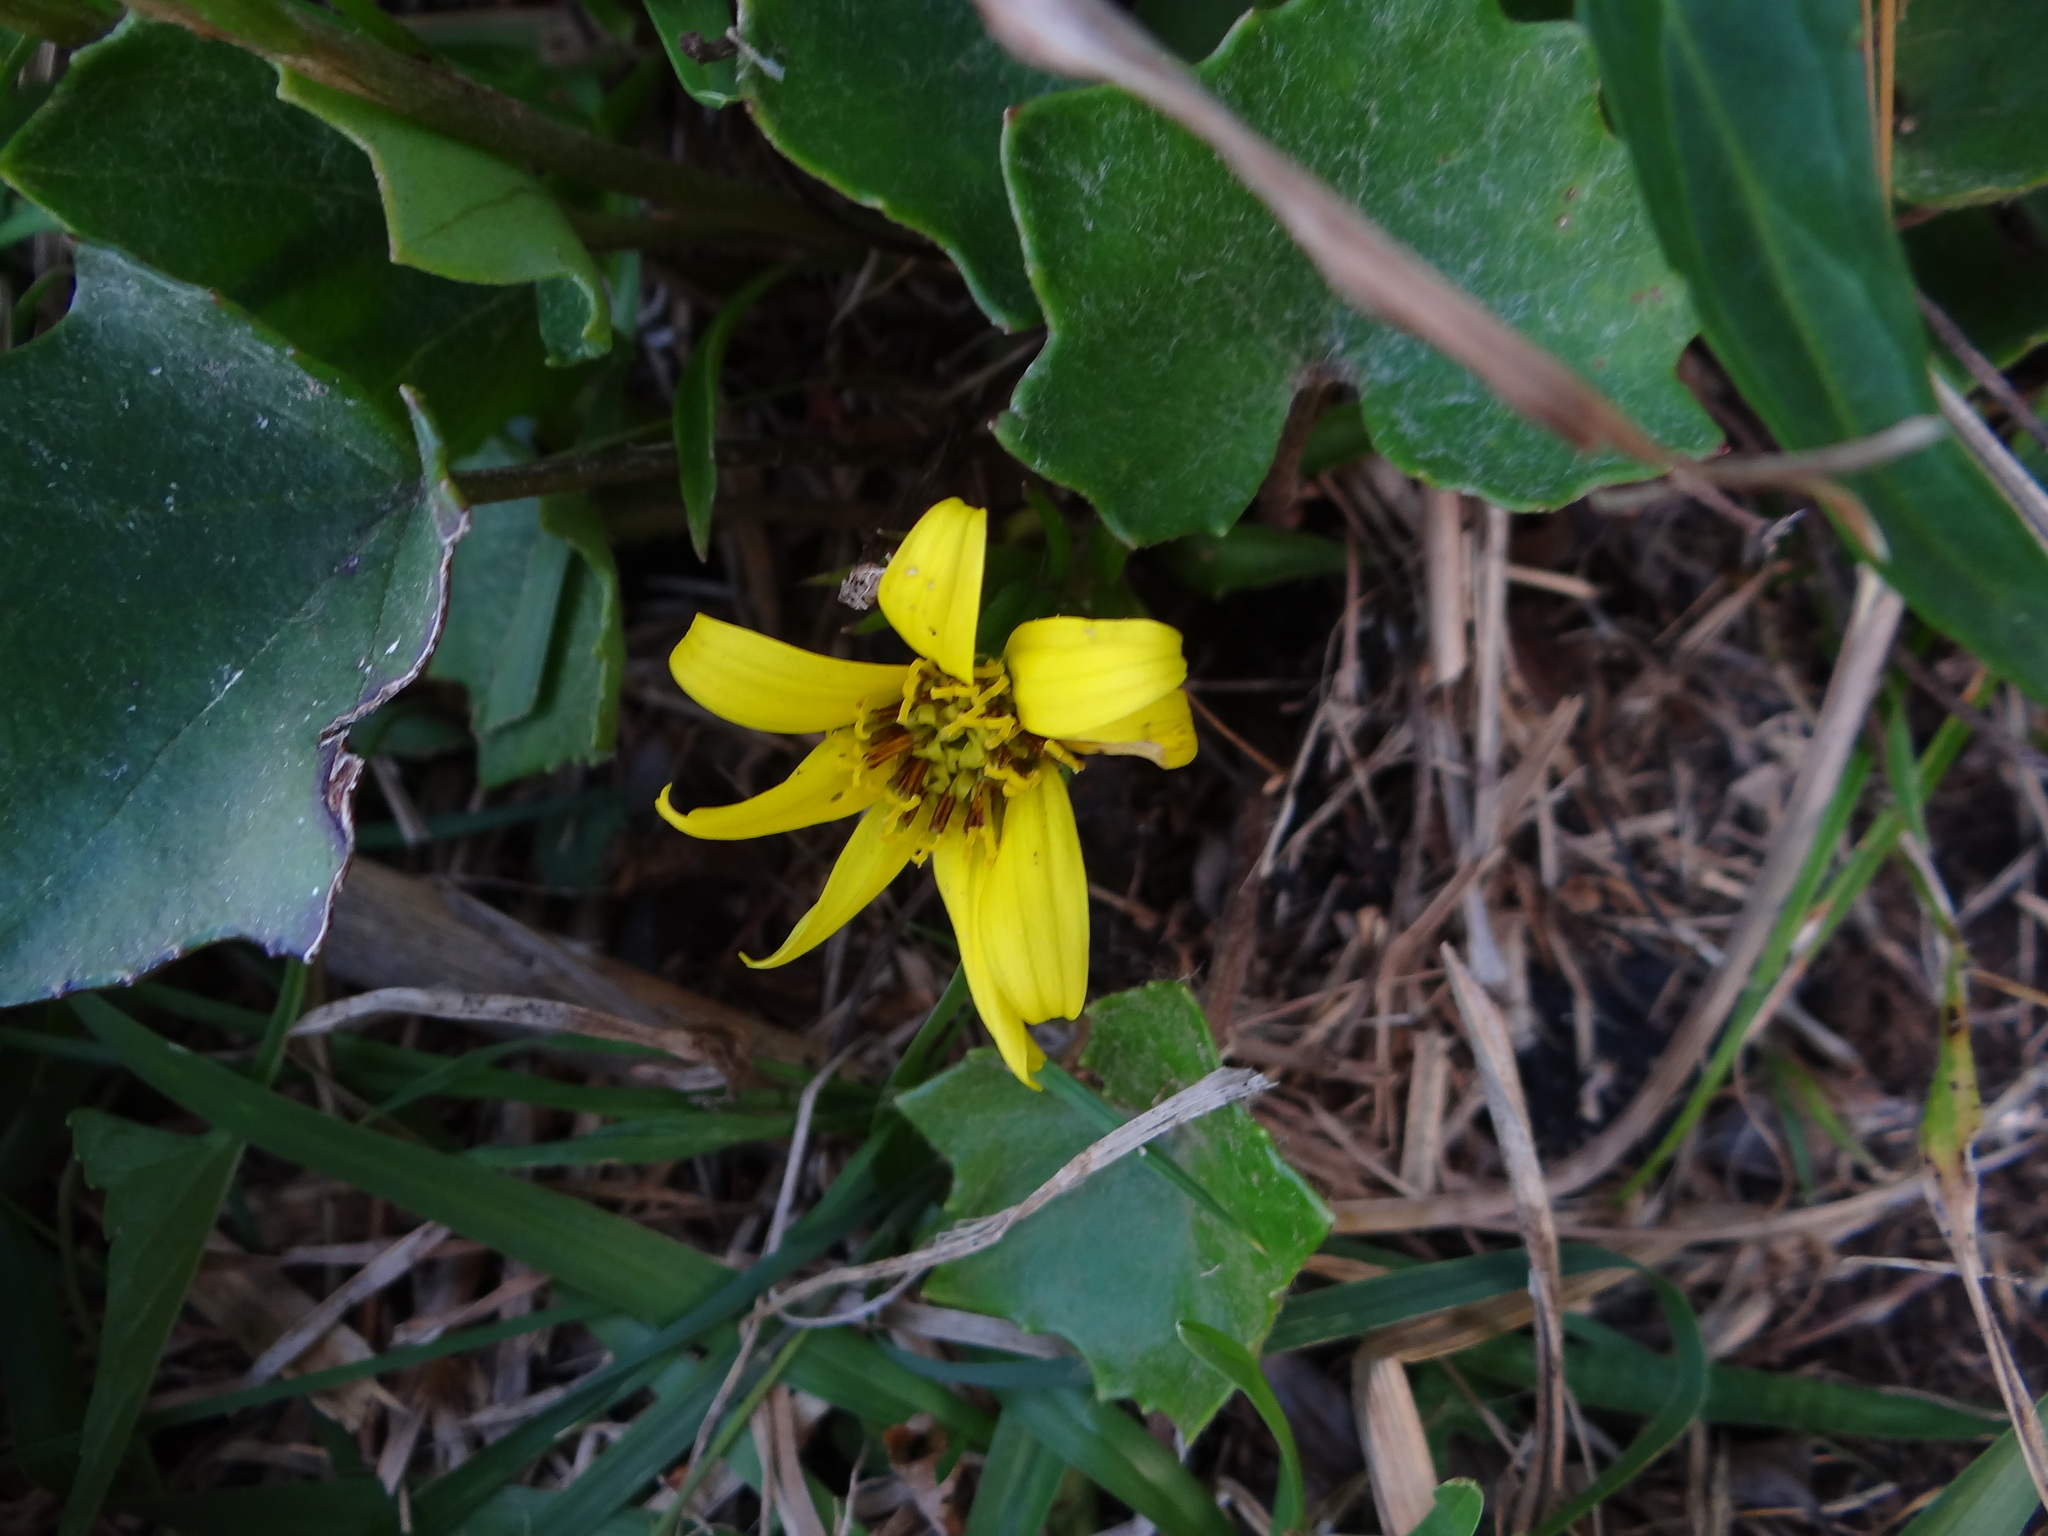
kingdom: Plantae
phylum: Tracheophyta
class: Magnoliopsida
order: Asterales
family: Asteraceae
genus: Farfugium
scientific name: Farfugium japonicum
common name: Leopardplant
